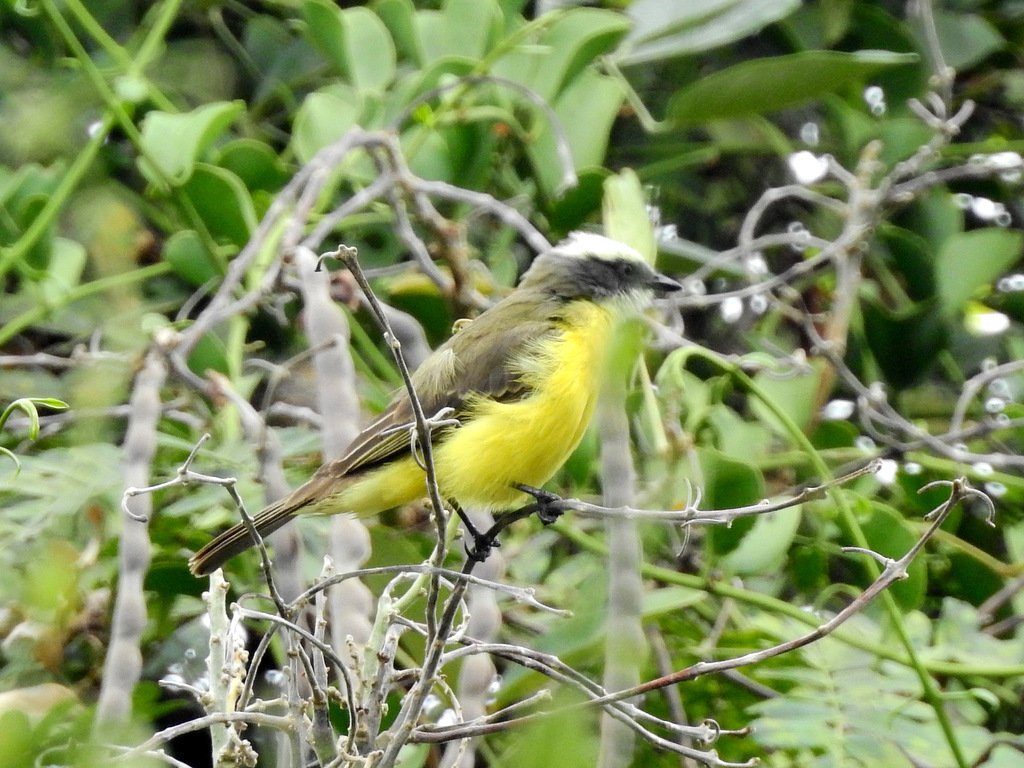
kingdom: Animalia
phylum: Chordata
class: Aves
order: Passeriformes
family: Tyrannidae
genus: Myiozetetes
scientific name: Myiozetetes similis
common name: Social flycatcher
